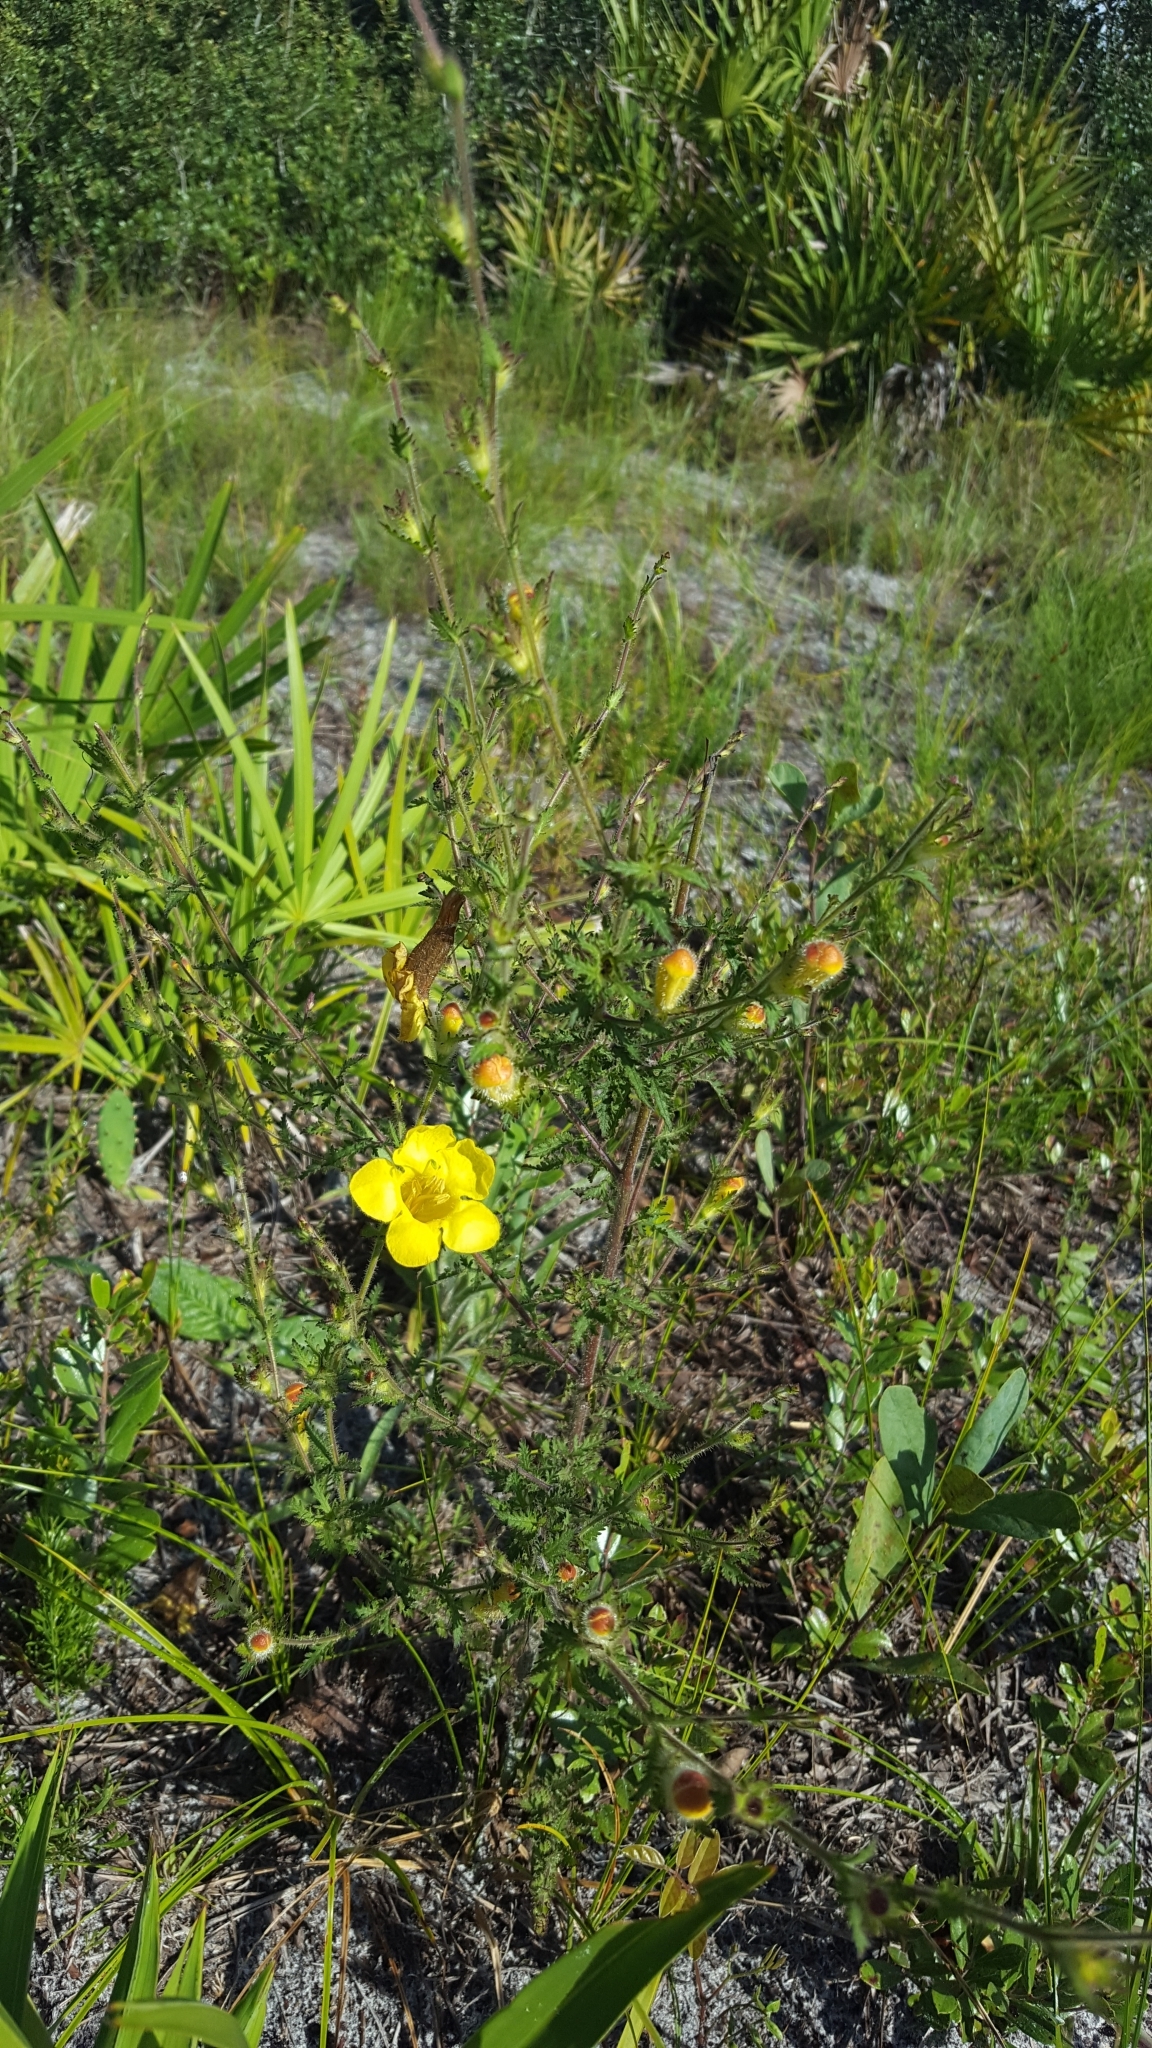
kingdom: Plantae
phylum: Tracheophyta
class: Magnoliopsida
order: Lamiales
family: Orobanchaceae
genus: Aureolaria
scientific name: Aureolaria pectinata
